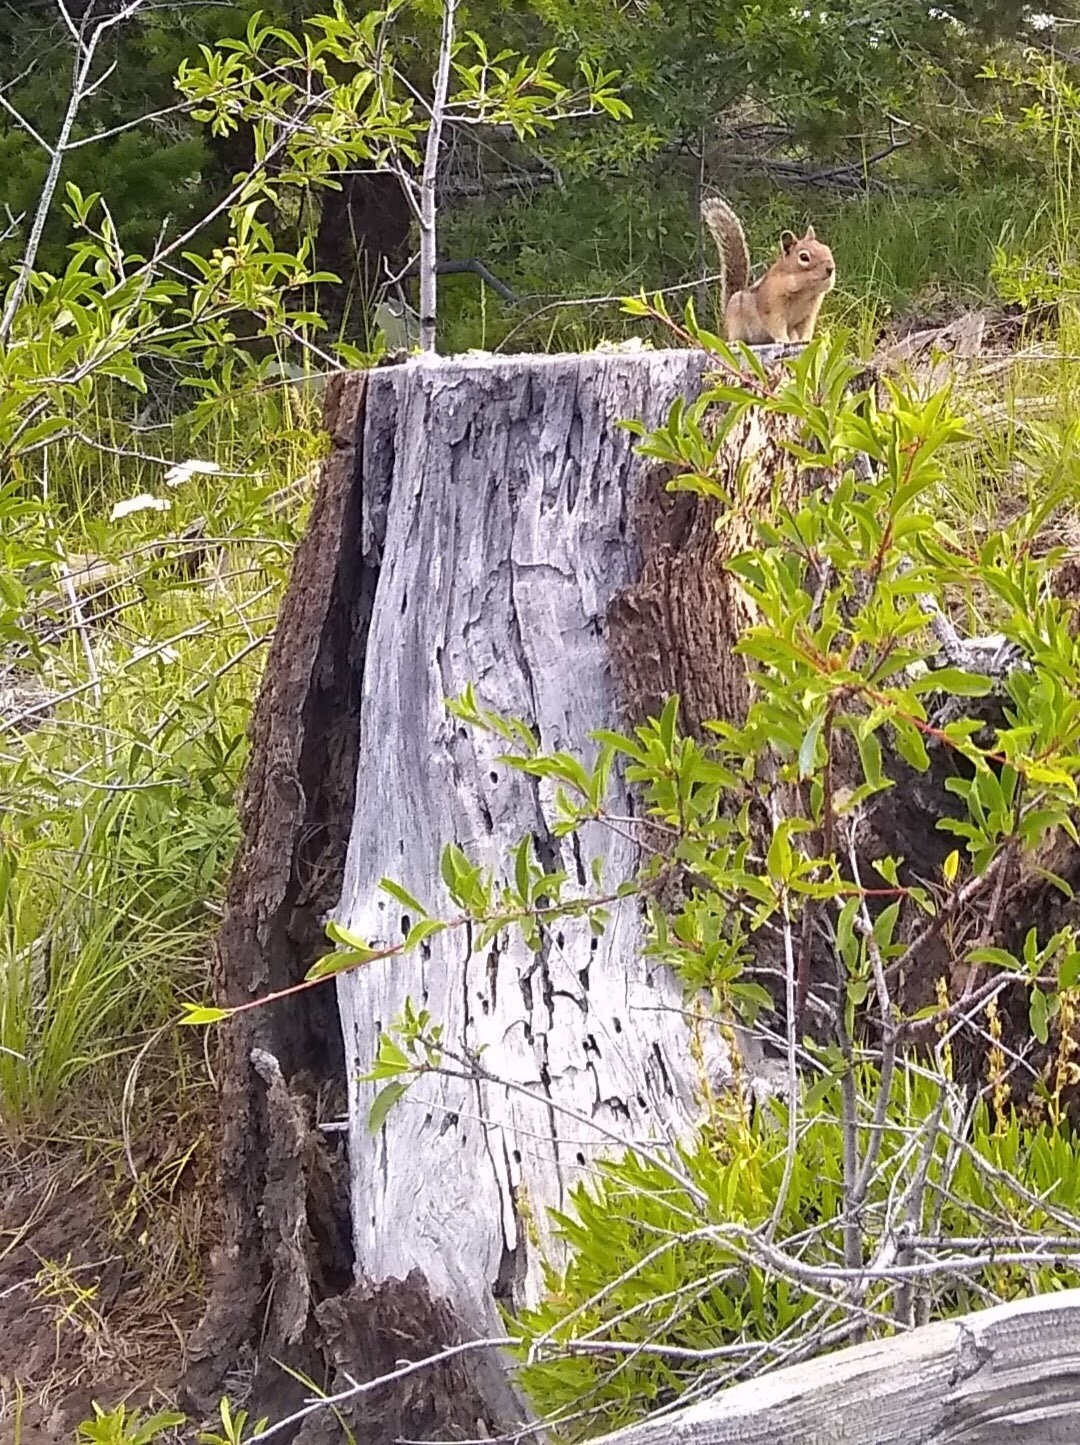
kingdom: Animalia
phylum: Chordata
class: Mammalia
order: Rodentia
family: Sciuridae
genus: Callospermophilus
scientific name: Callospermophilus saturatus
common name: Cascade golden-mantled ground squirrel
